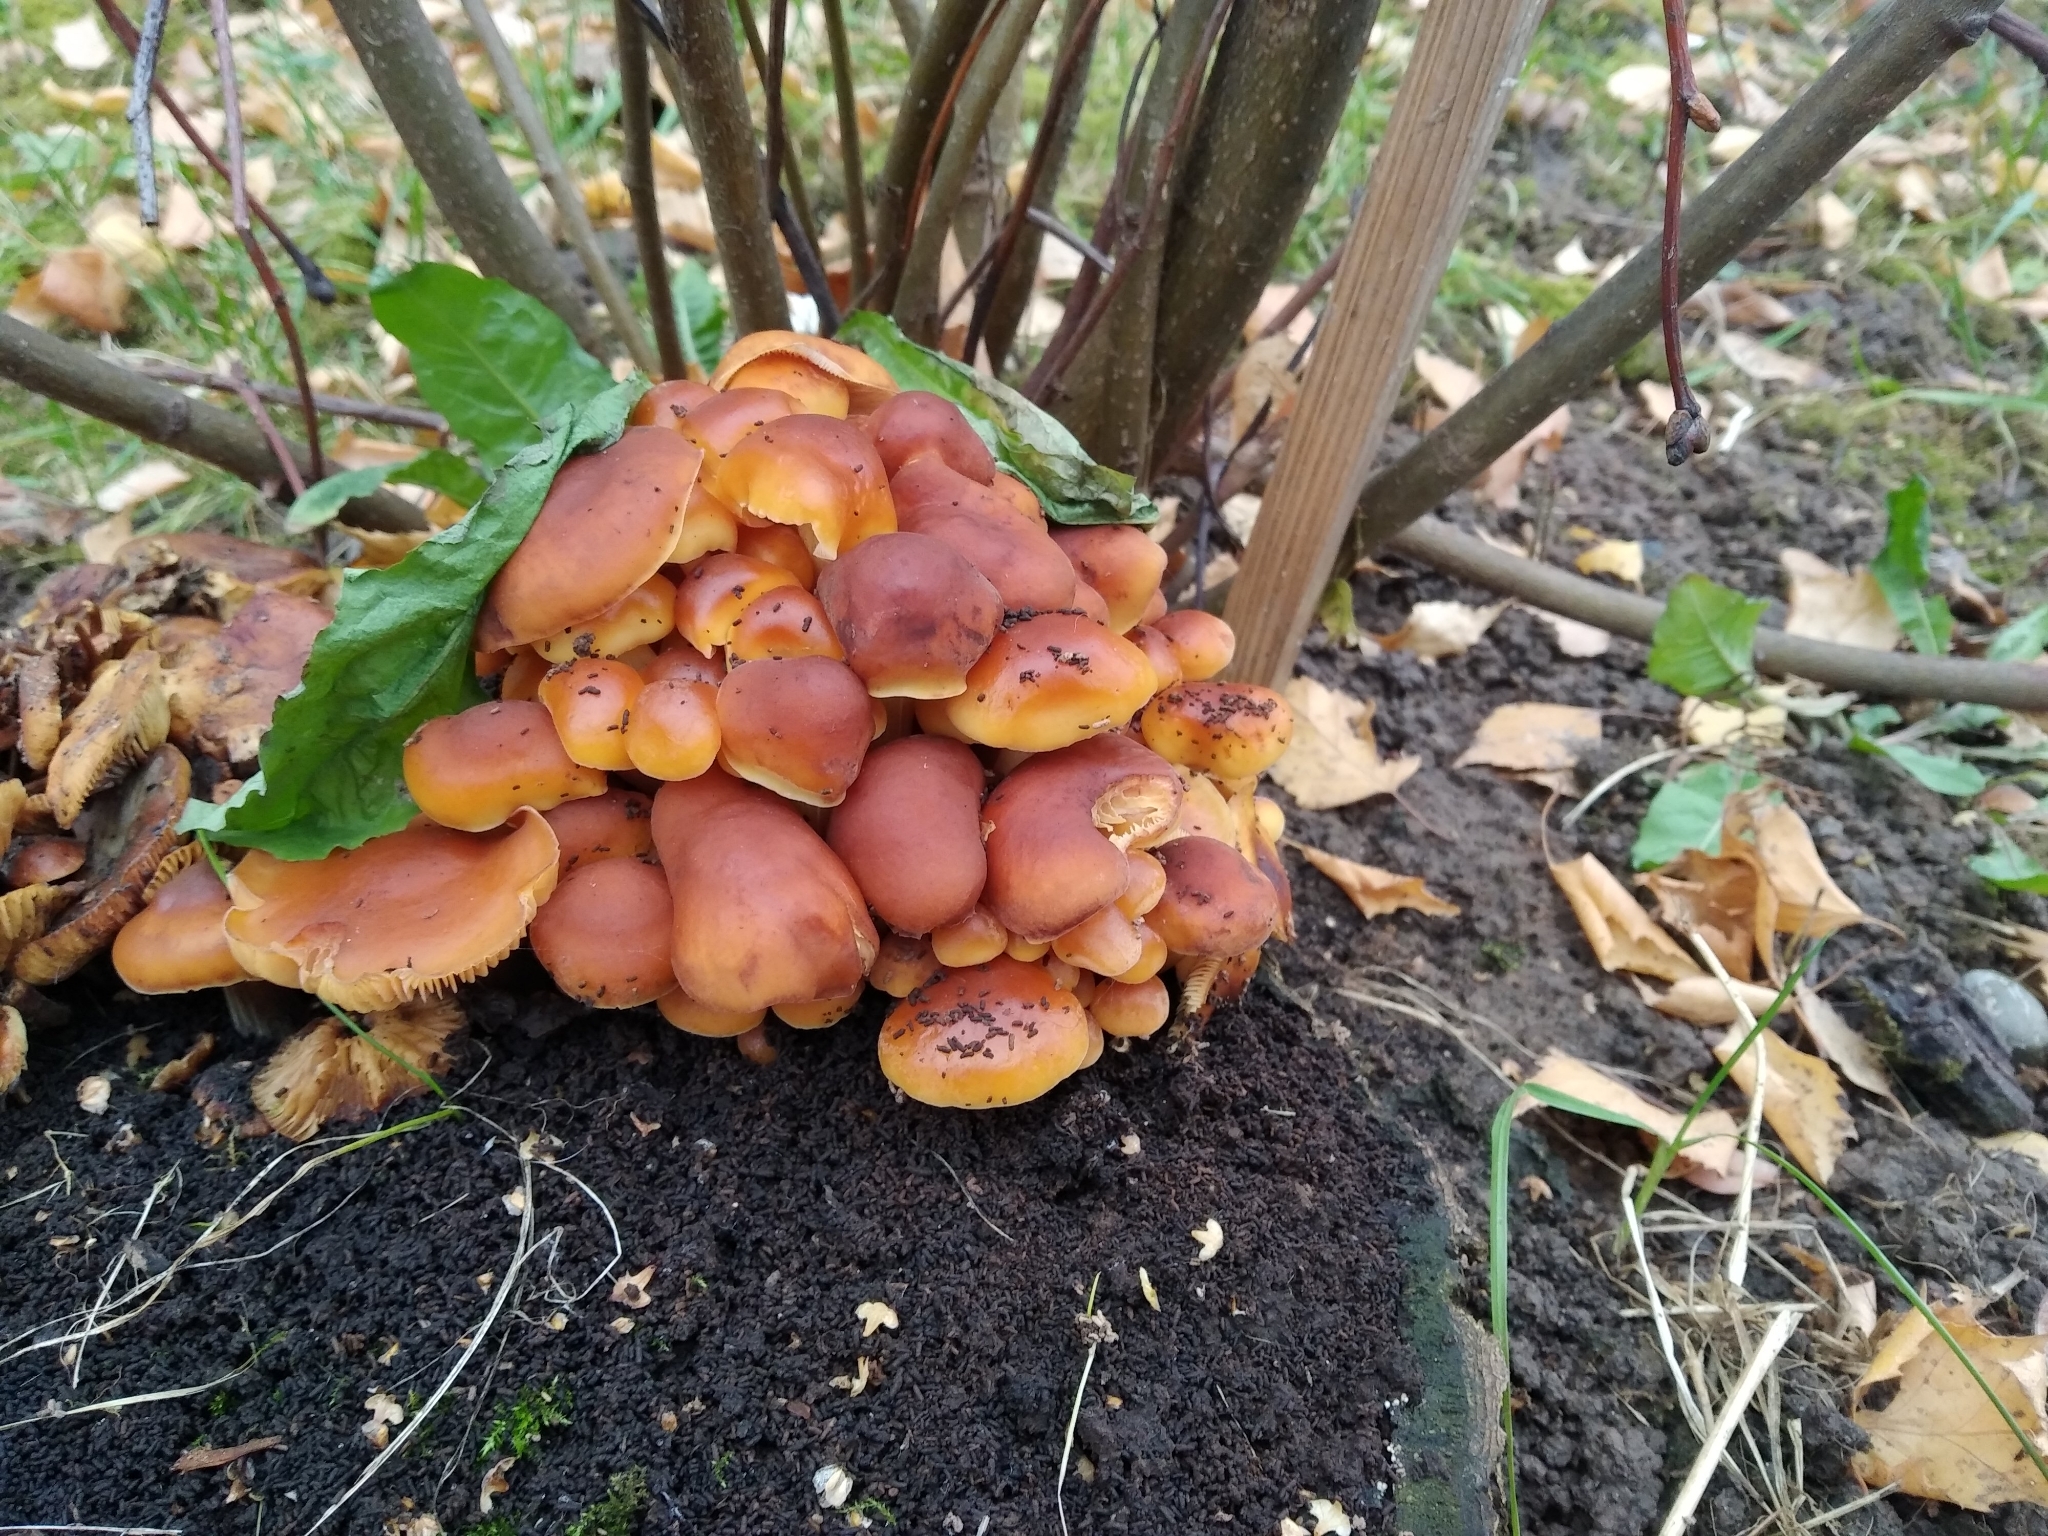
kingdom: Fungi
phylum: Basidiomycota
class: Agaricomycetes
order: Agaricales
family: Physalacriaceae
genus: Flammulina
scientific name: Flammulina
